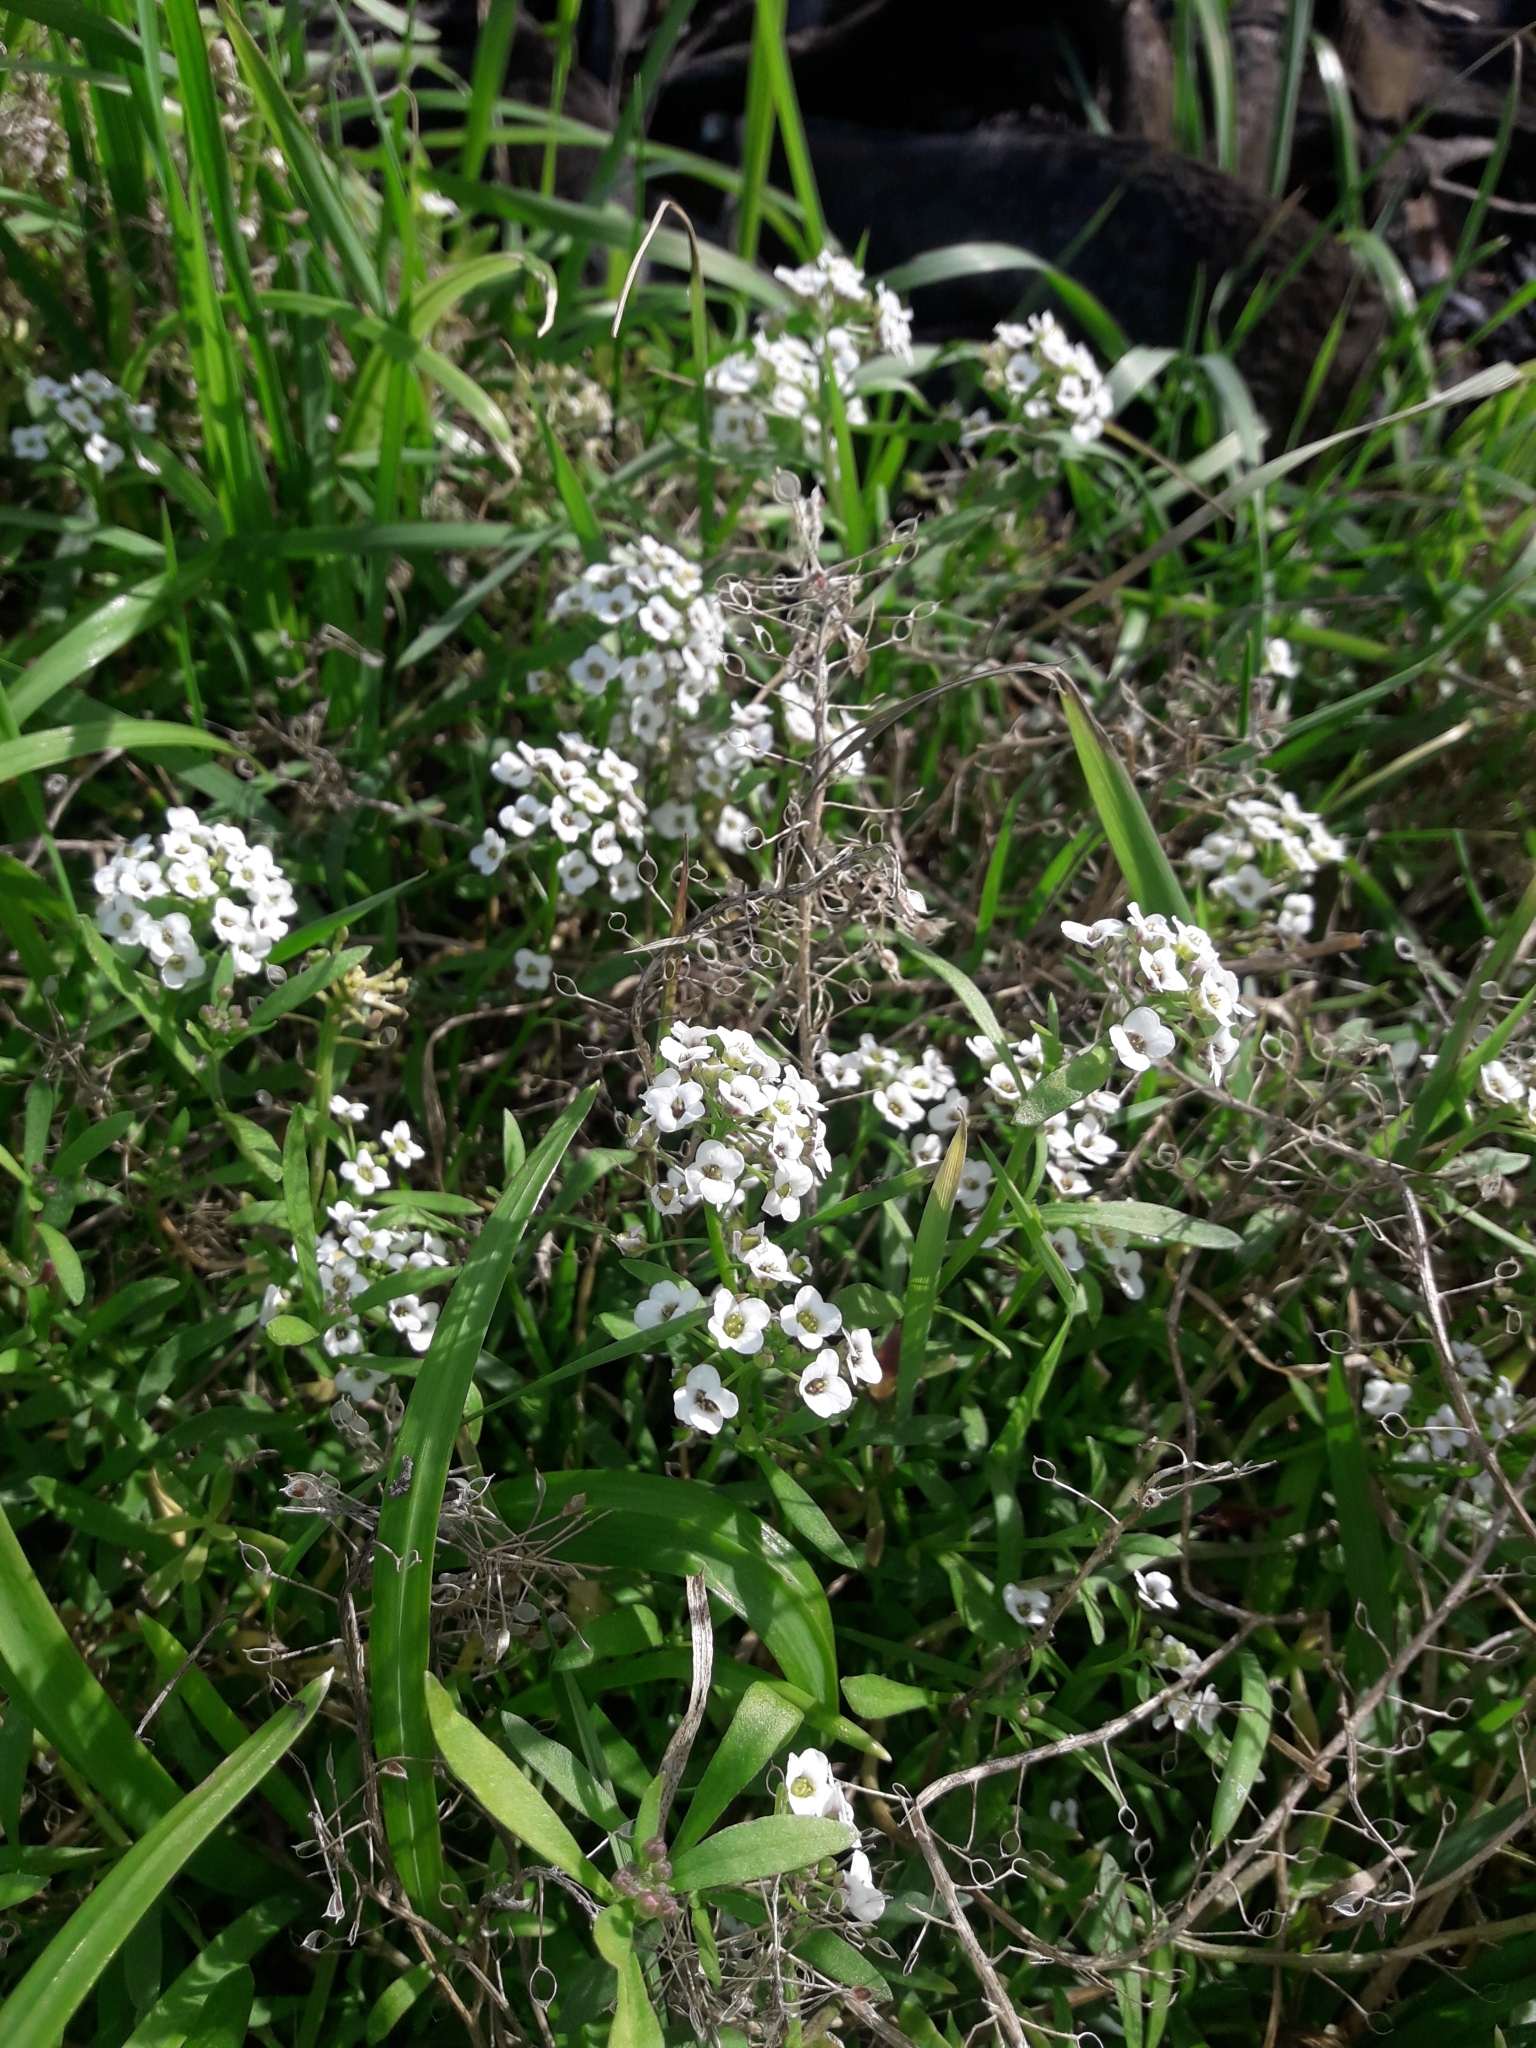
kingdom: Plantae
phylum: Tracheophyta
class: Magnoliopsida
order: Brassicales
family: Brassicaceae
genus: Lobularia
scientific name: Lobularia maritima
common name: Sweet alison
